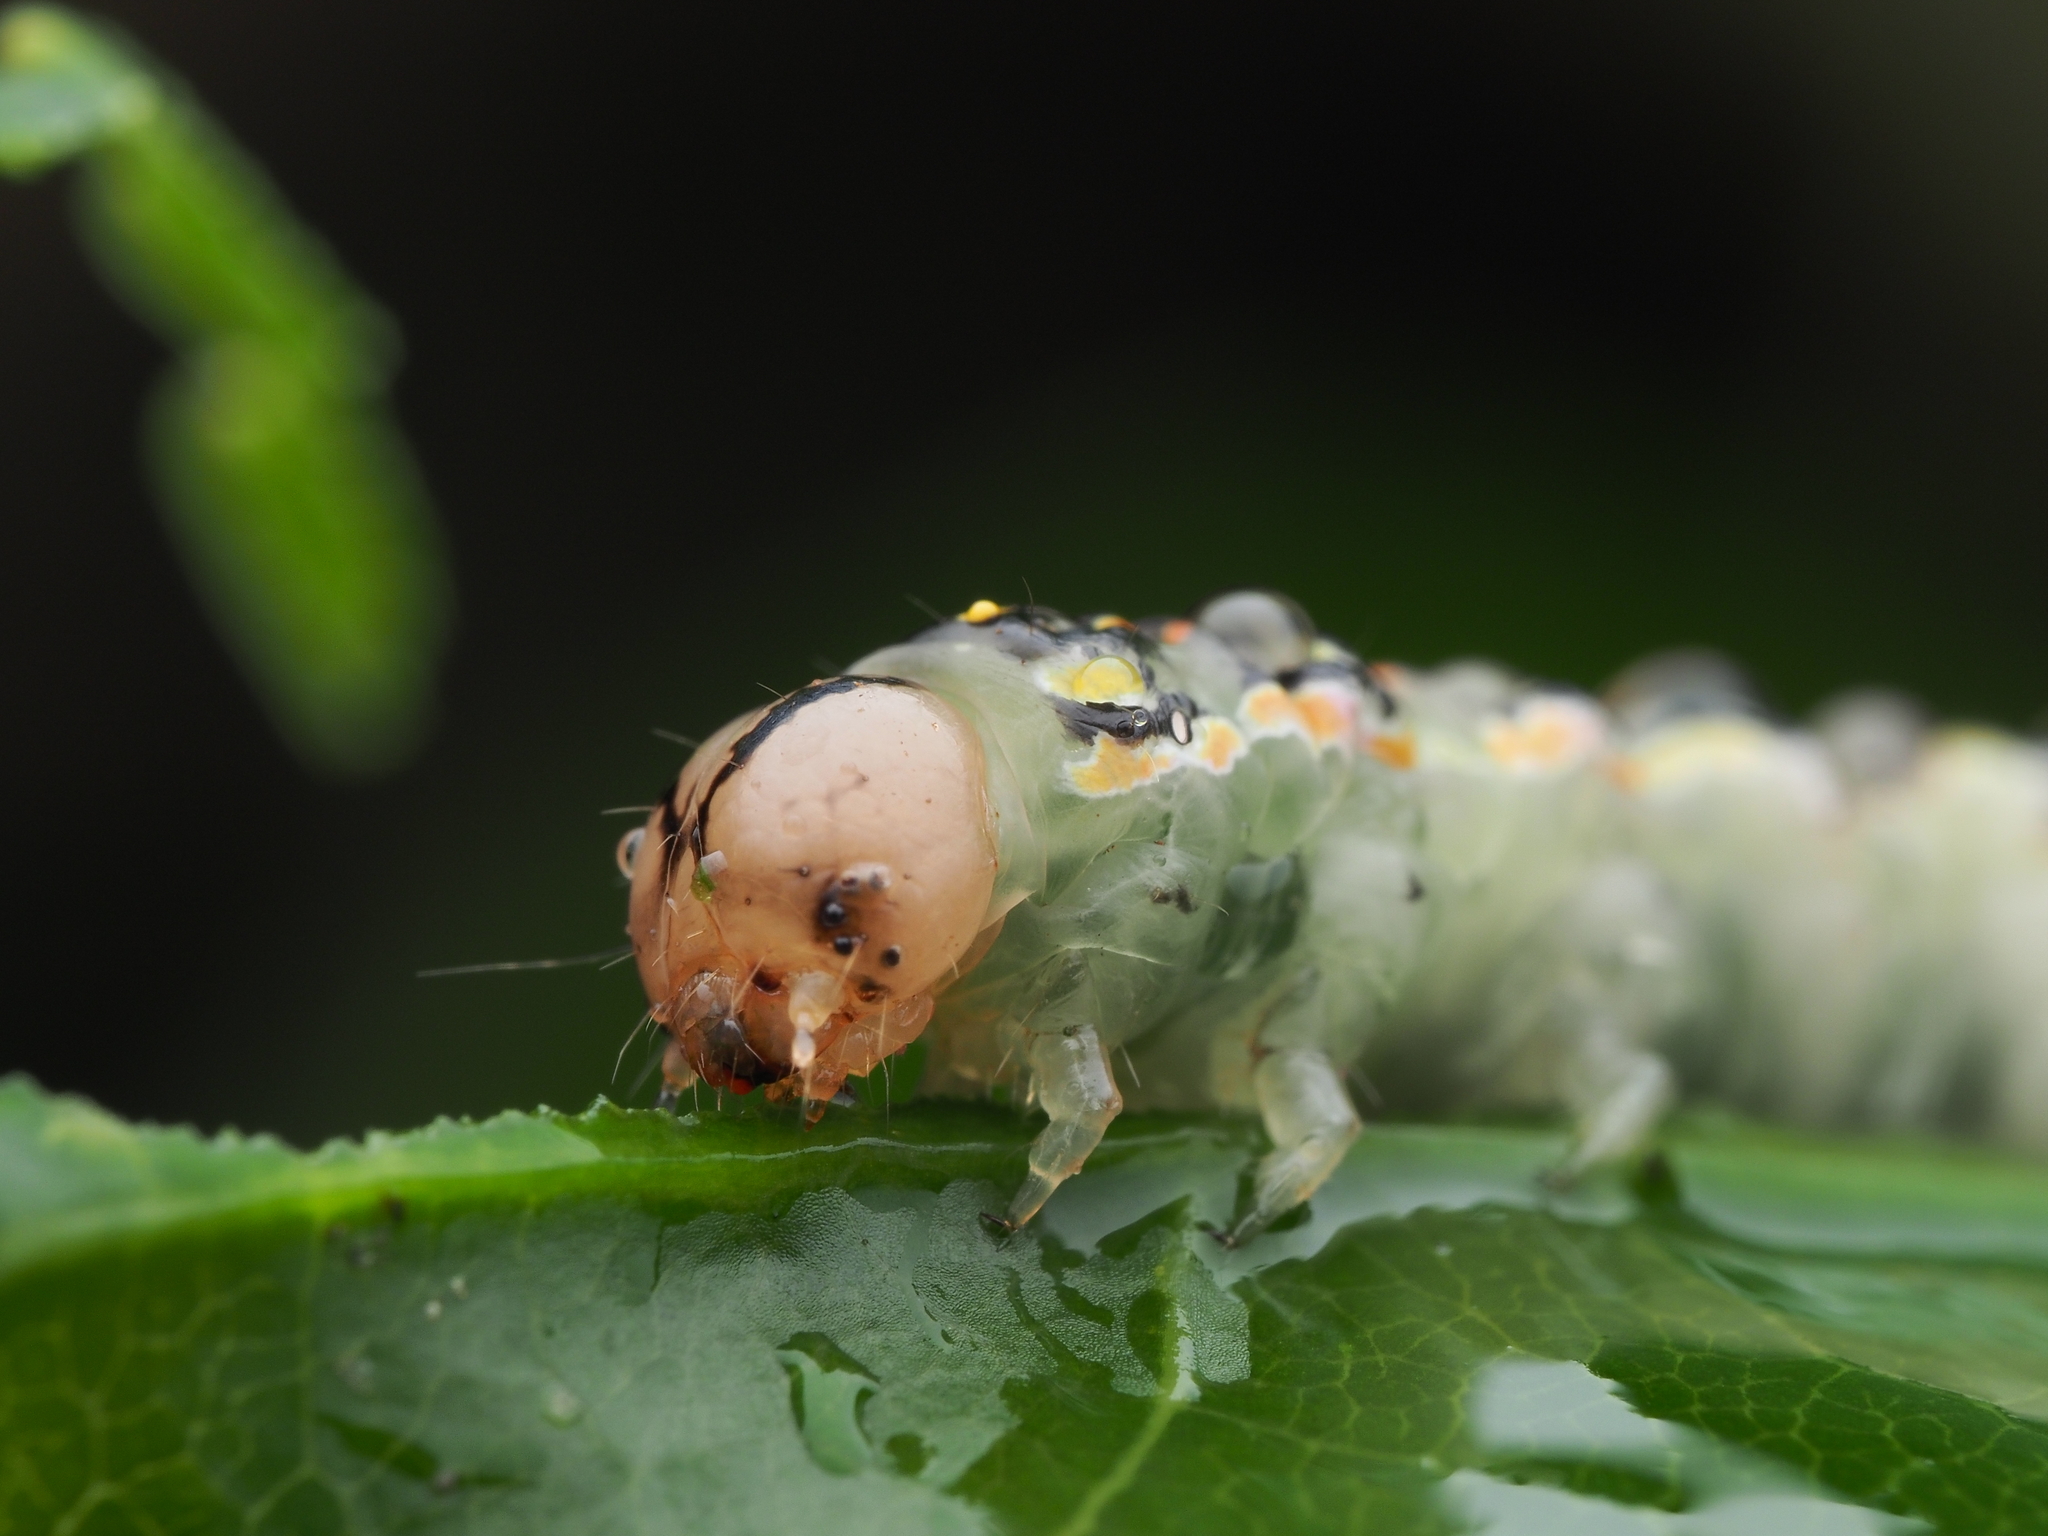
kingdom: Animalia
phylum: Arthropoda
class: Insecta
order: Lepidoptera
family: Noctuidae
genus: Austramathes
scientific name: Austramathes purpurea
